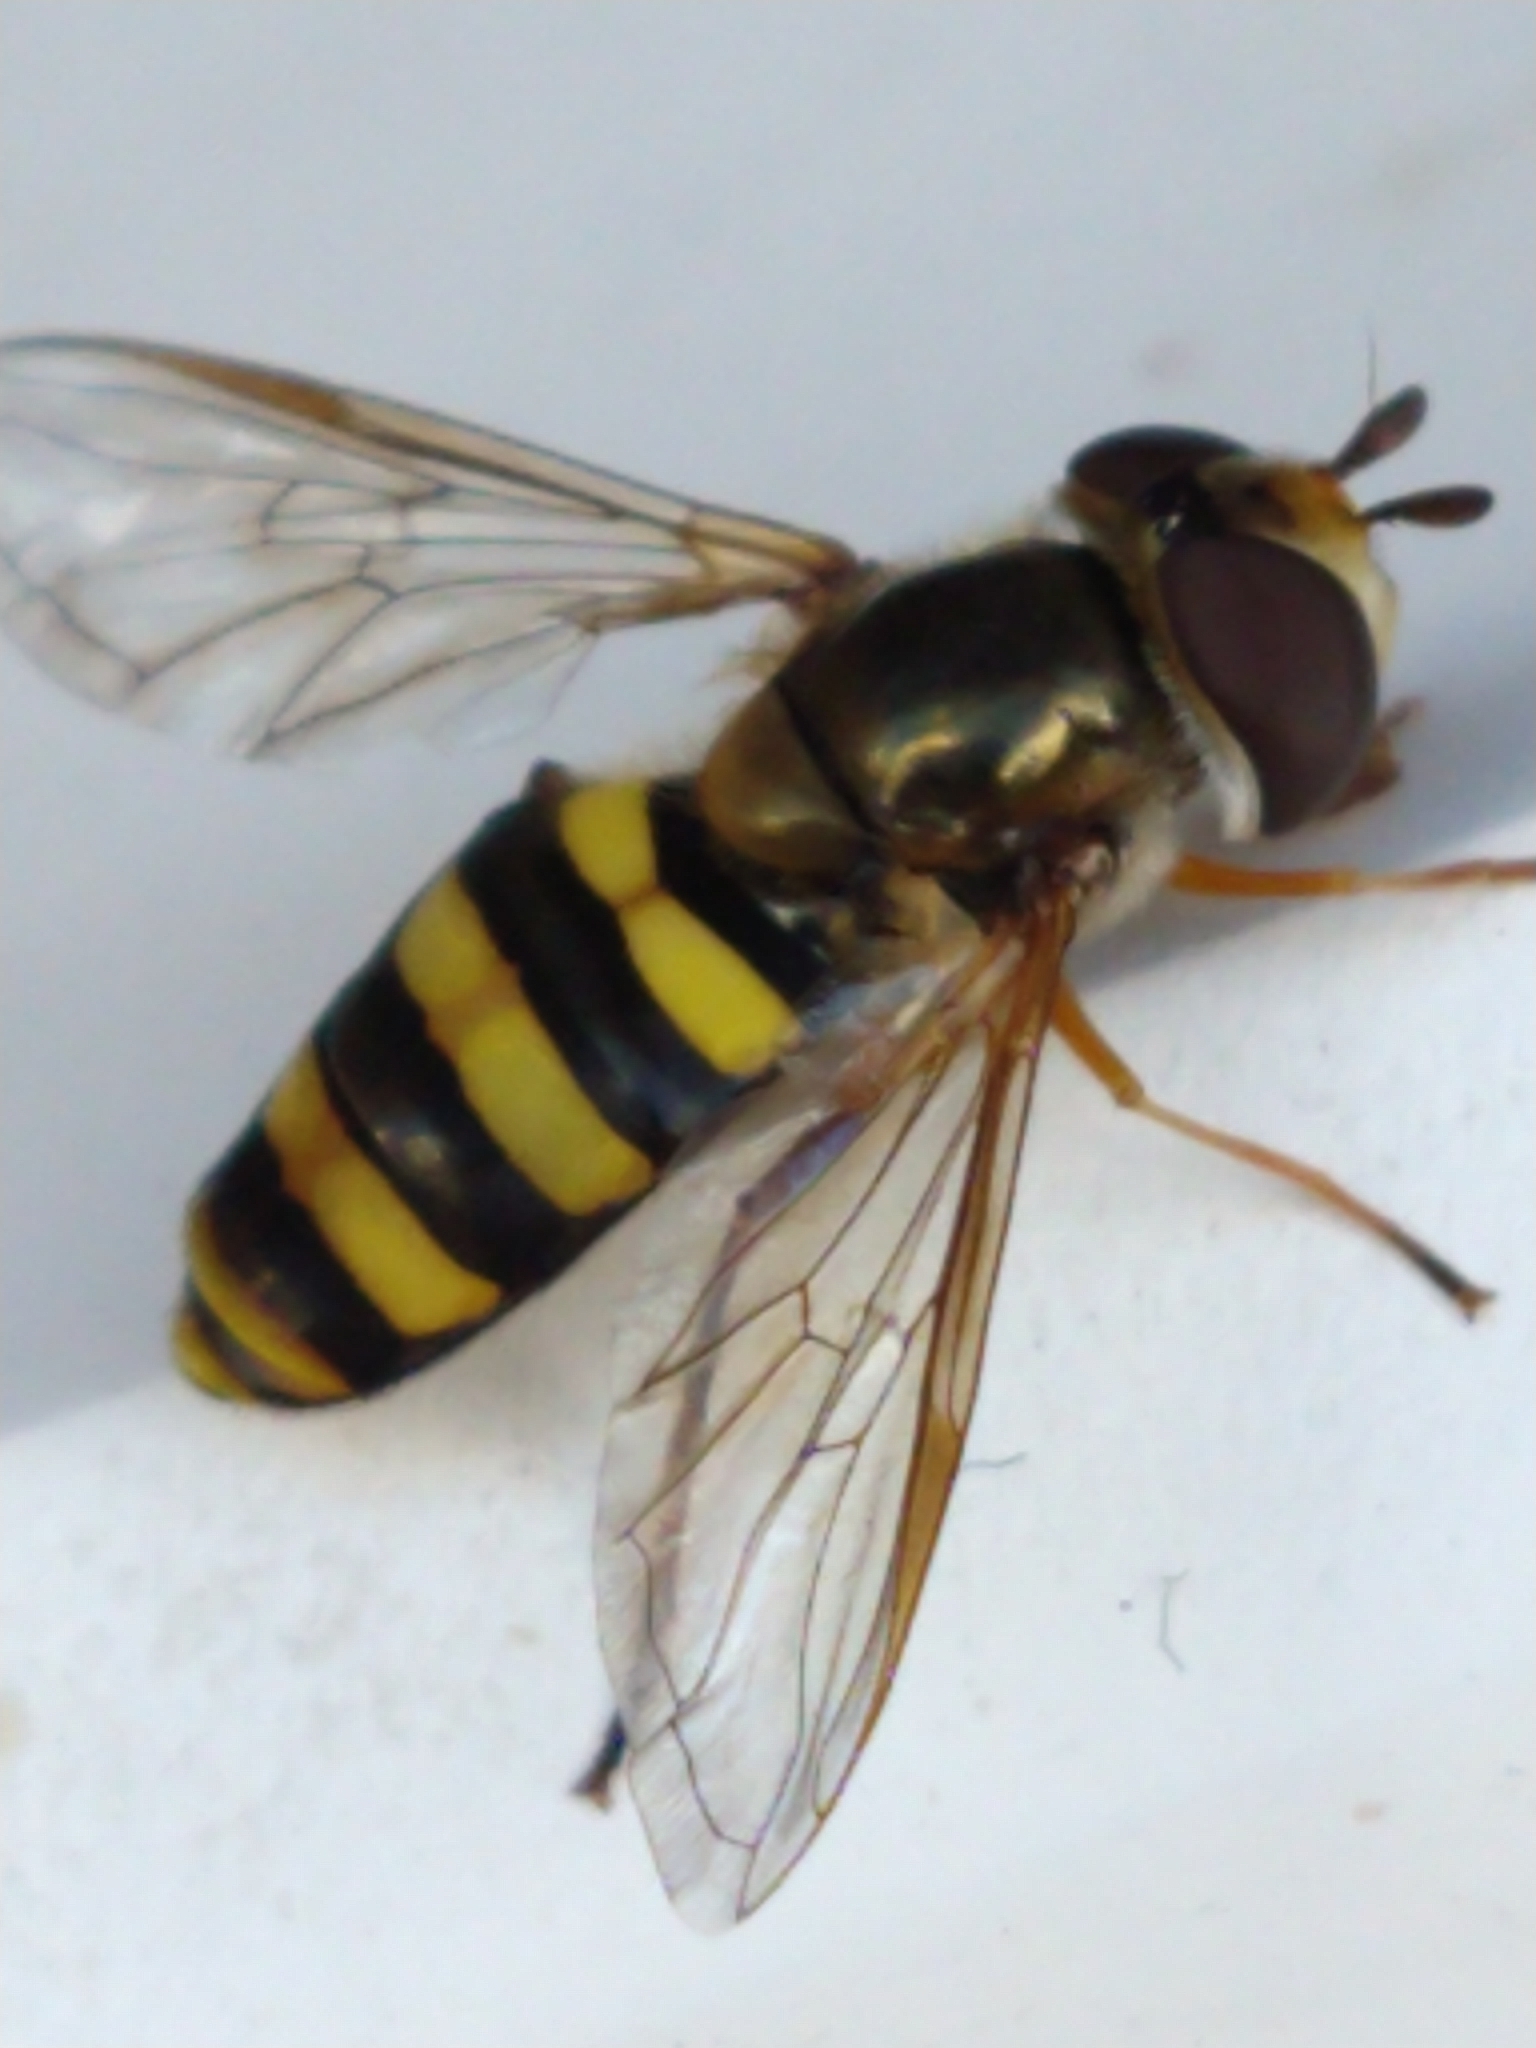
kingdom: Animalia
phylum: Arthropoda
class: Insecta
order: Diptera
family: Syrphidae
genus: Eupeodes
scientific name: Eupeodes
